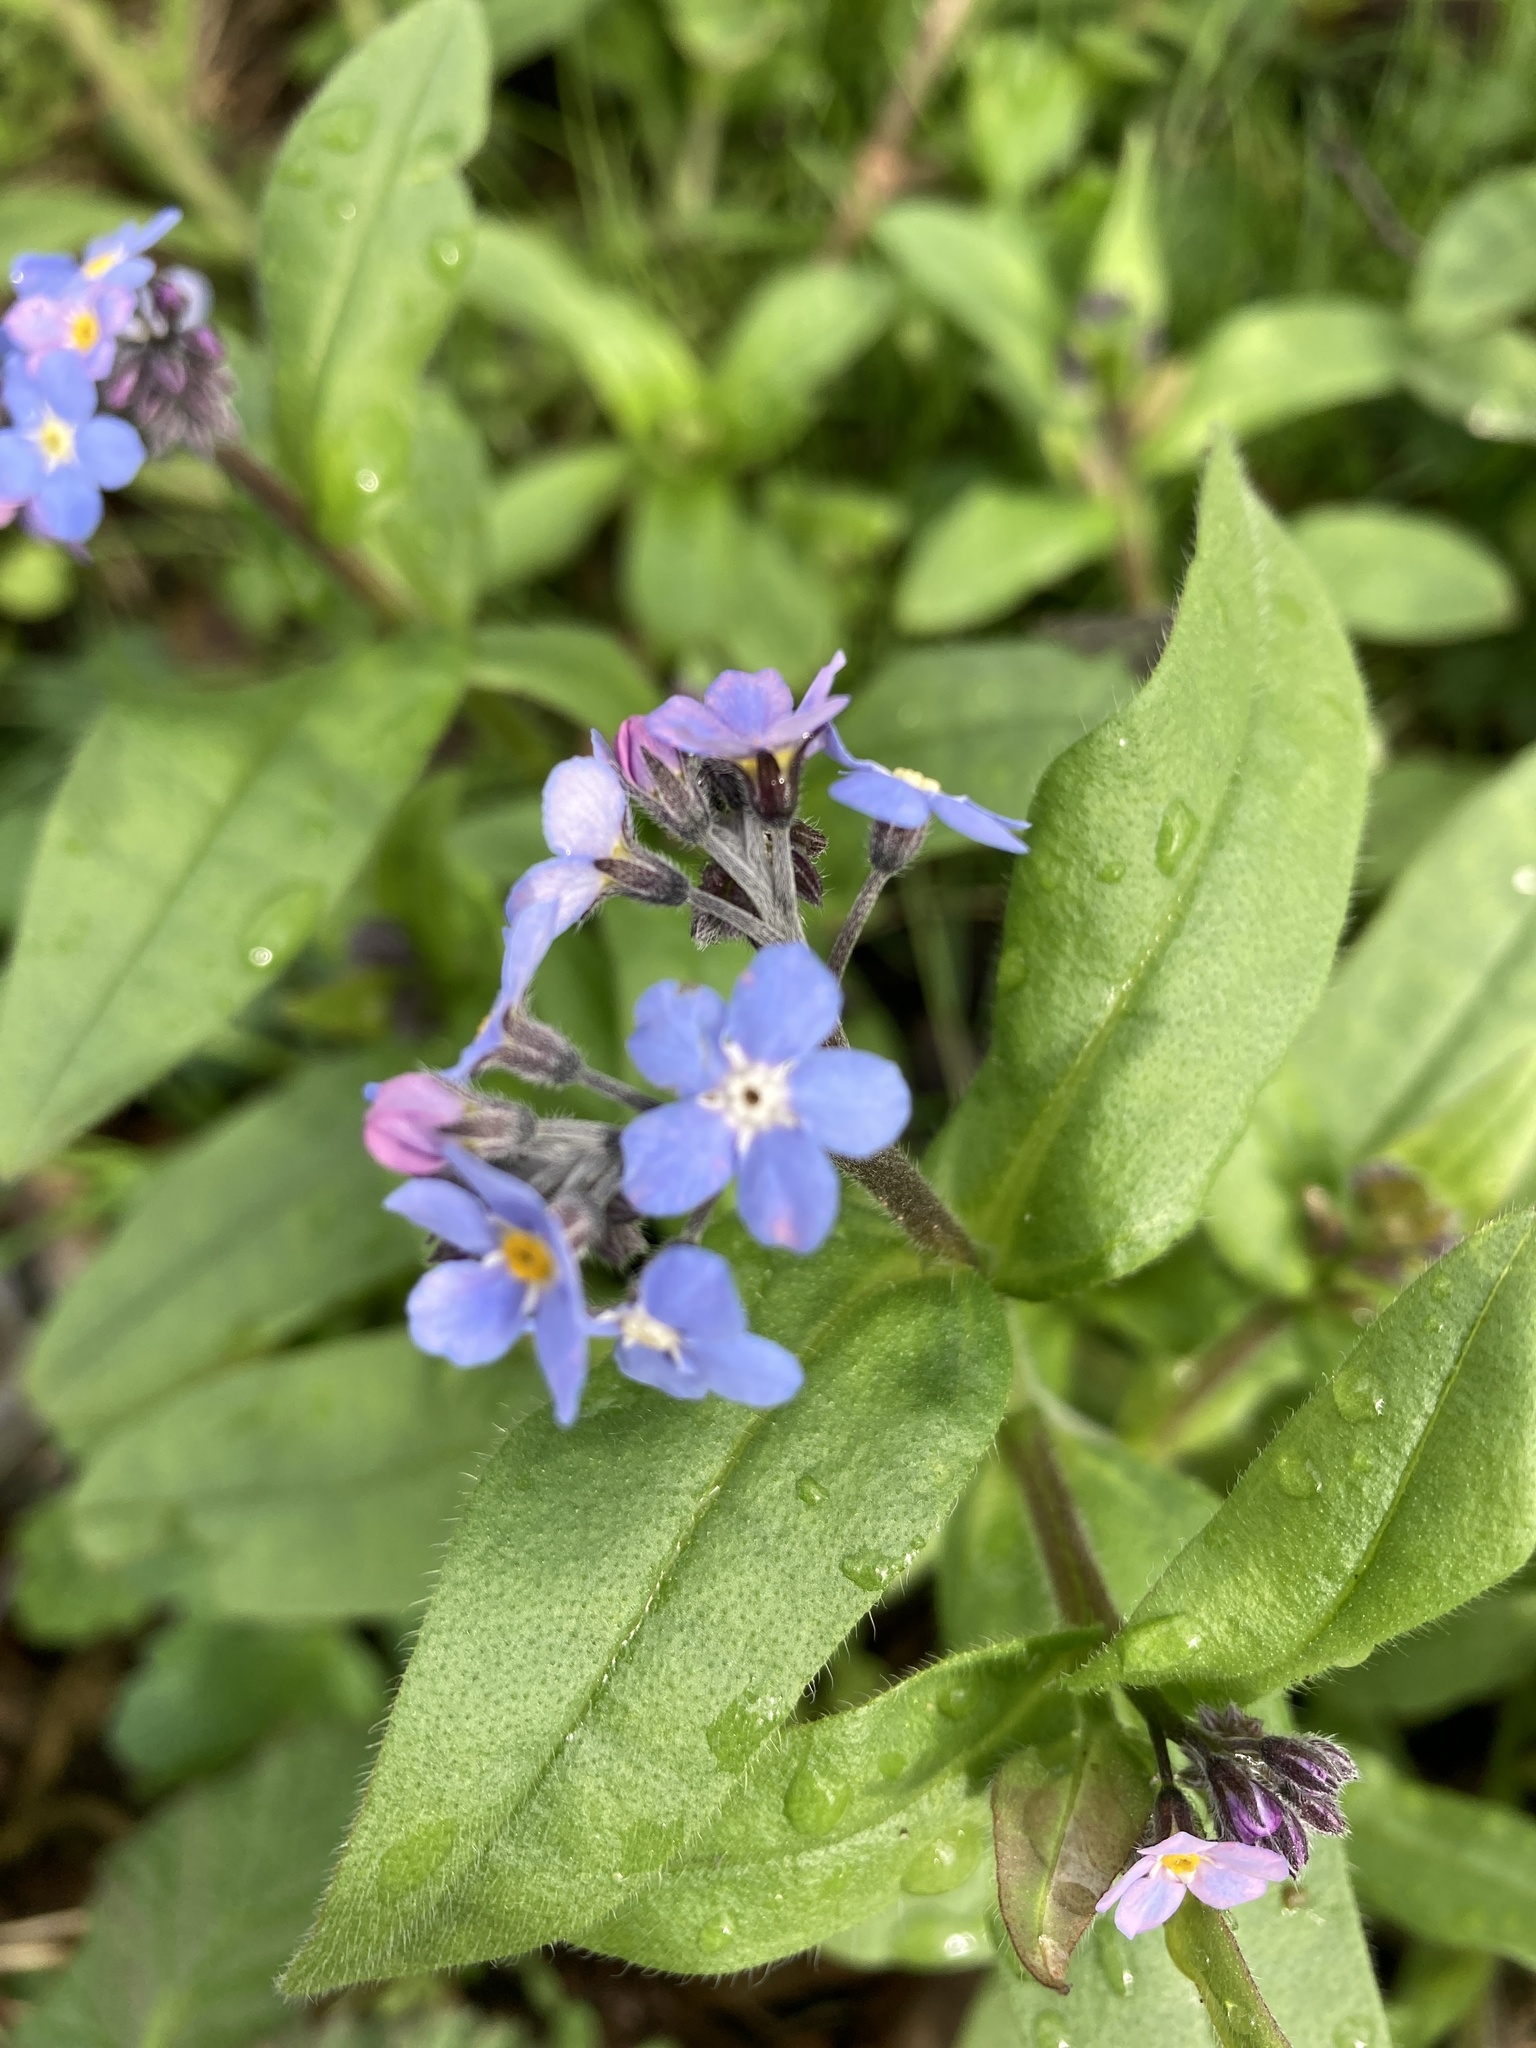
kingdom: Plantae
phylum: Tracheophyta
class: Magnoliopsida
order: Boraginales
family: Boraginaceae
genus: Myosotis
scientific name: Myosotis sylvatica
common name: Wood forget-me-not
